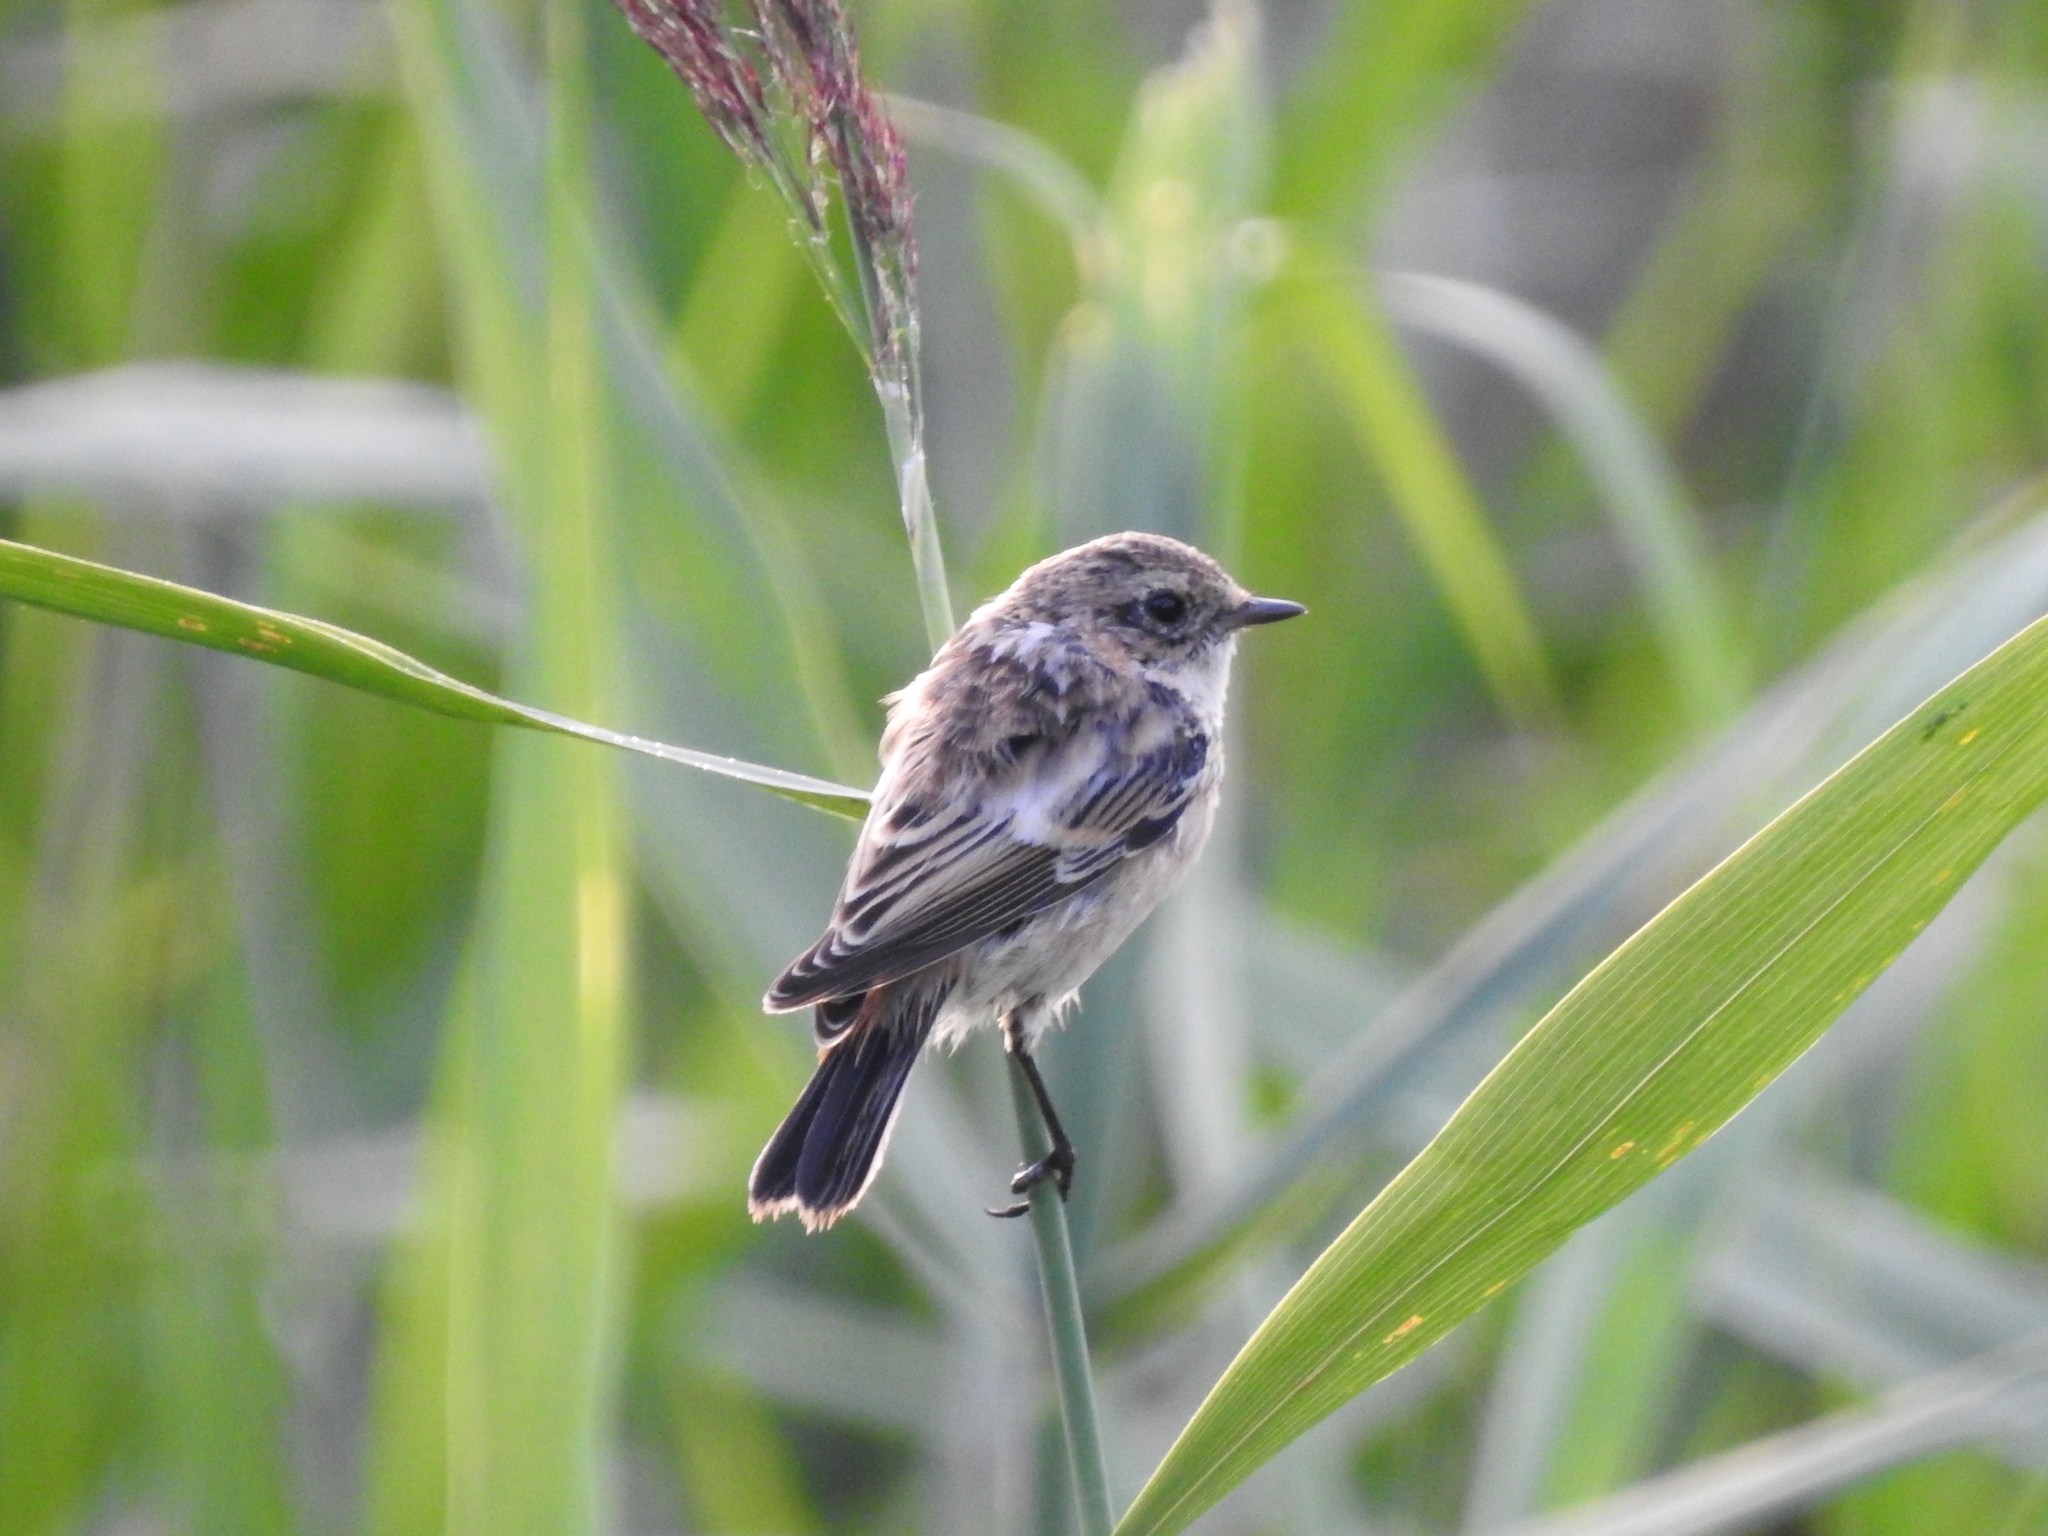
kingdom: Animalia
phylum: Chordata
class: Aves
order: Passeriformes
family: Muscicapidae
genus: Saxicola
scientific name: Saxicola maurus
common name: Siberian stonechat
